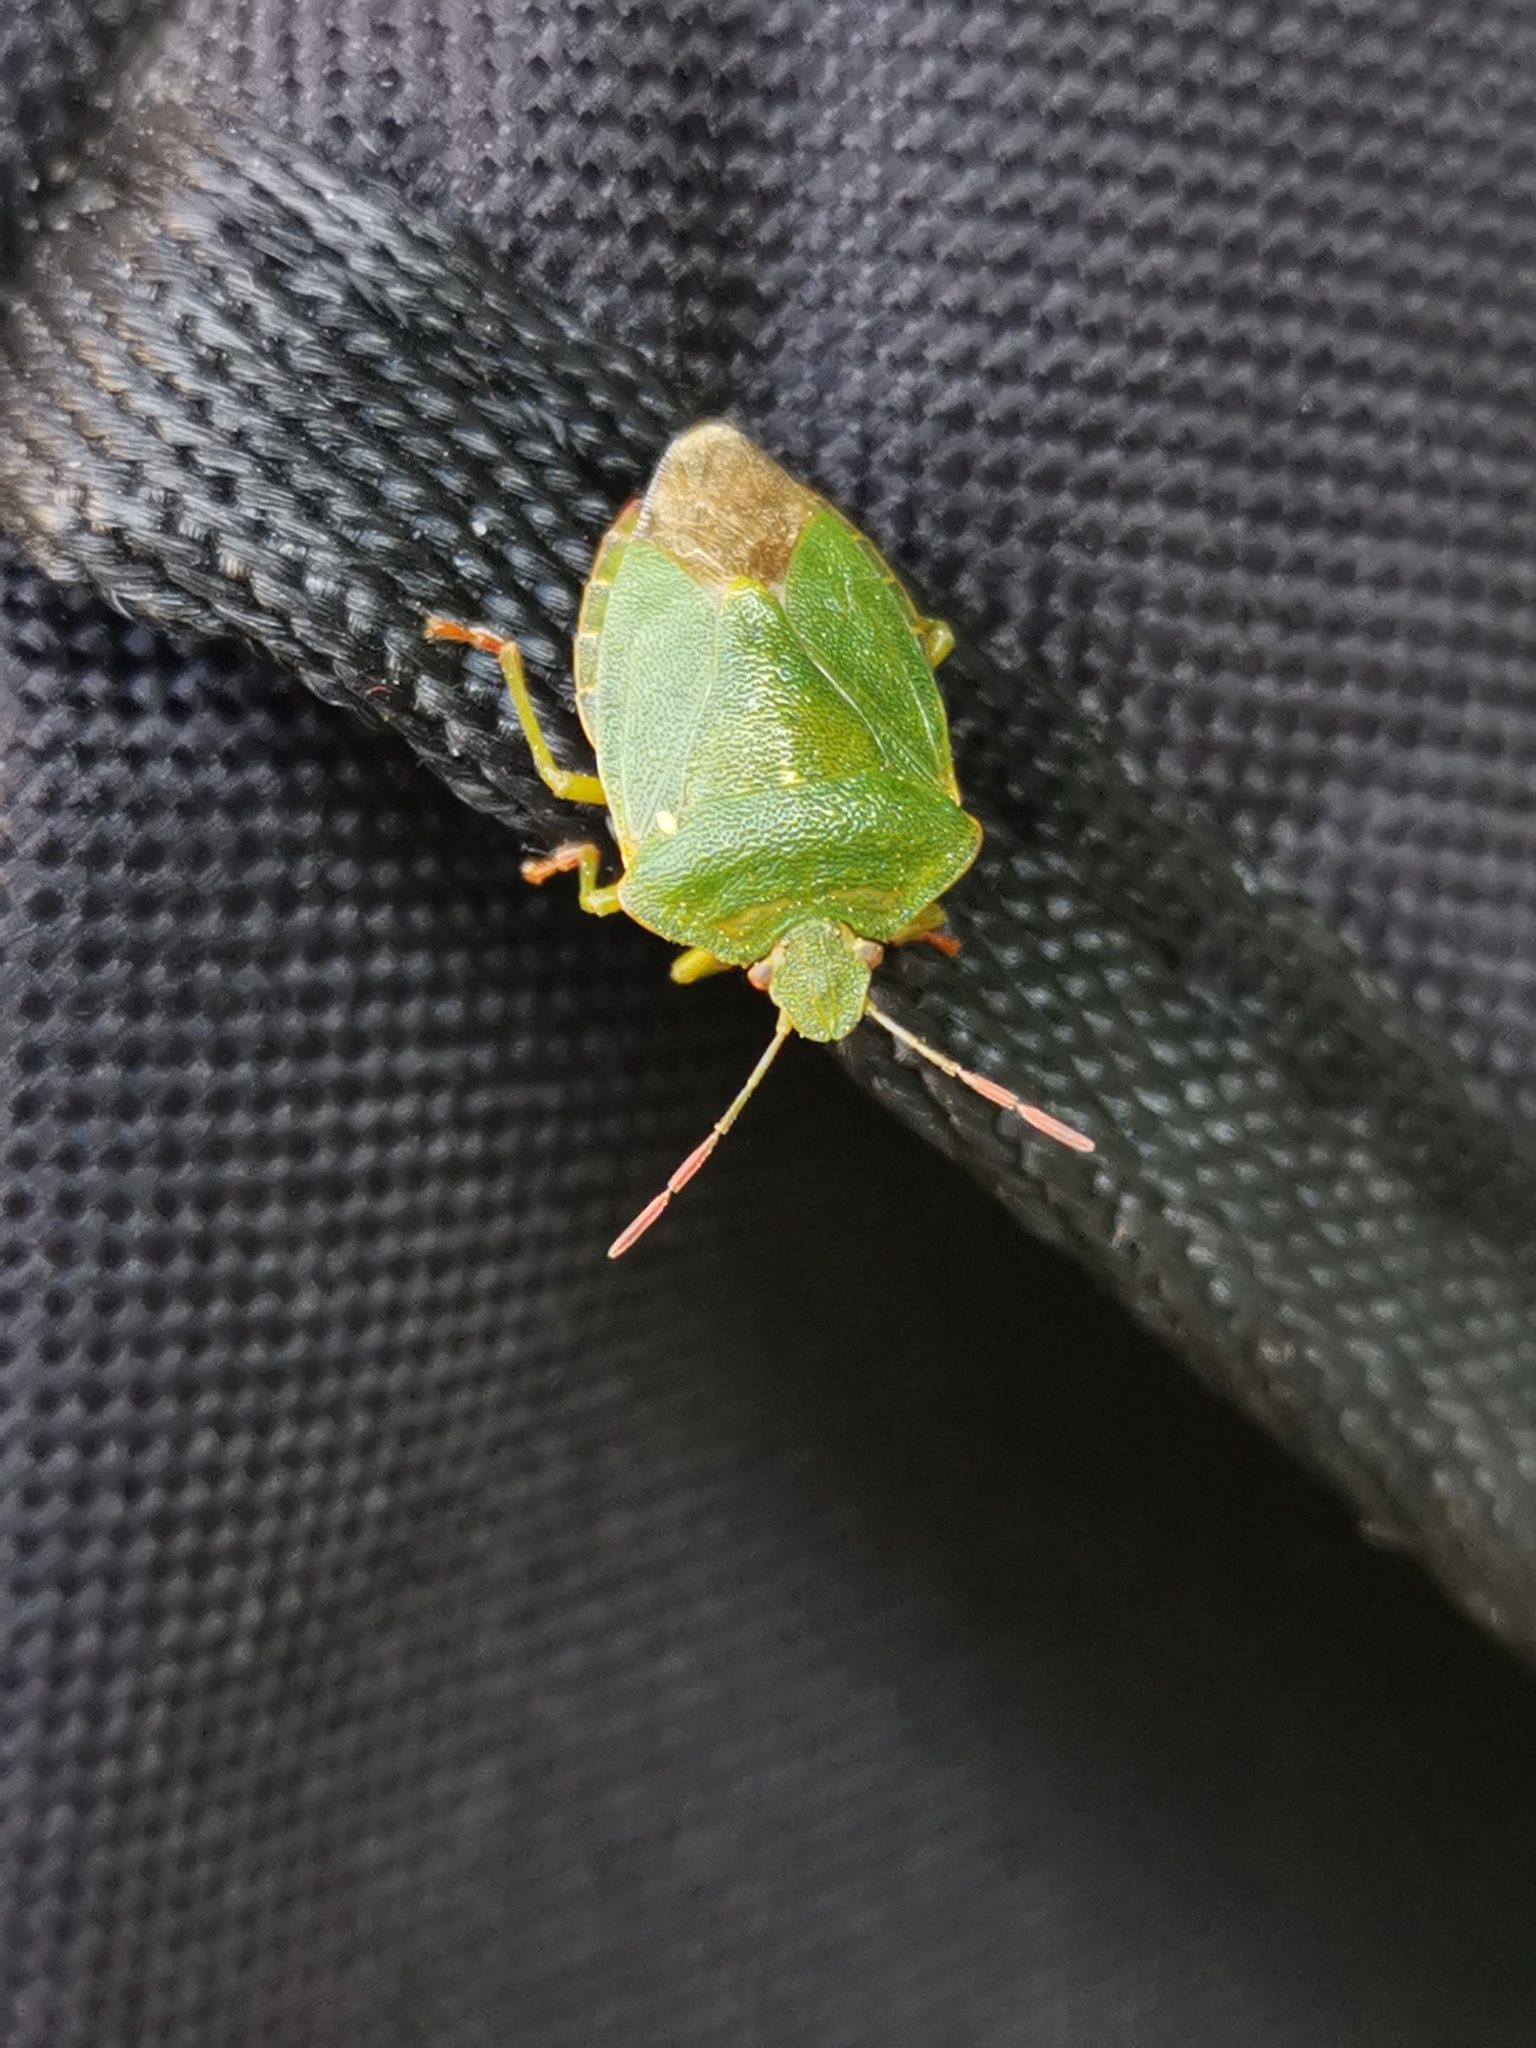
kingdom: Animalia
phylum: Arthropoda
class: Insecta
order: Hemiptera
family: Pentatomidae
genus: Palomena
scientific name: Palomena prasina
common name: Green shieldbug
